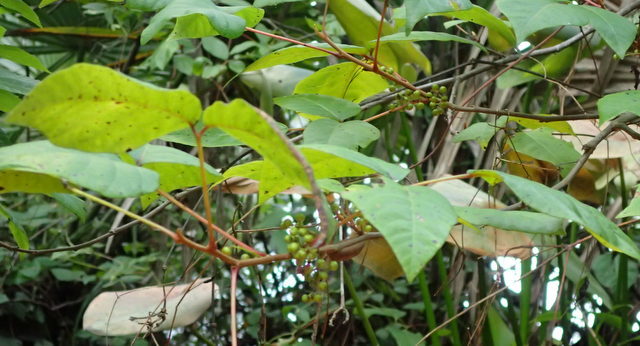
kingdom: Plantae
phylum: Tracheophyta
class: Magnoliopsida
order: Sapindales
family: Anacardiaceae
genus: Toxicodendron
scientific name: Toxicodendron radicans
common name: Poison ivy
